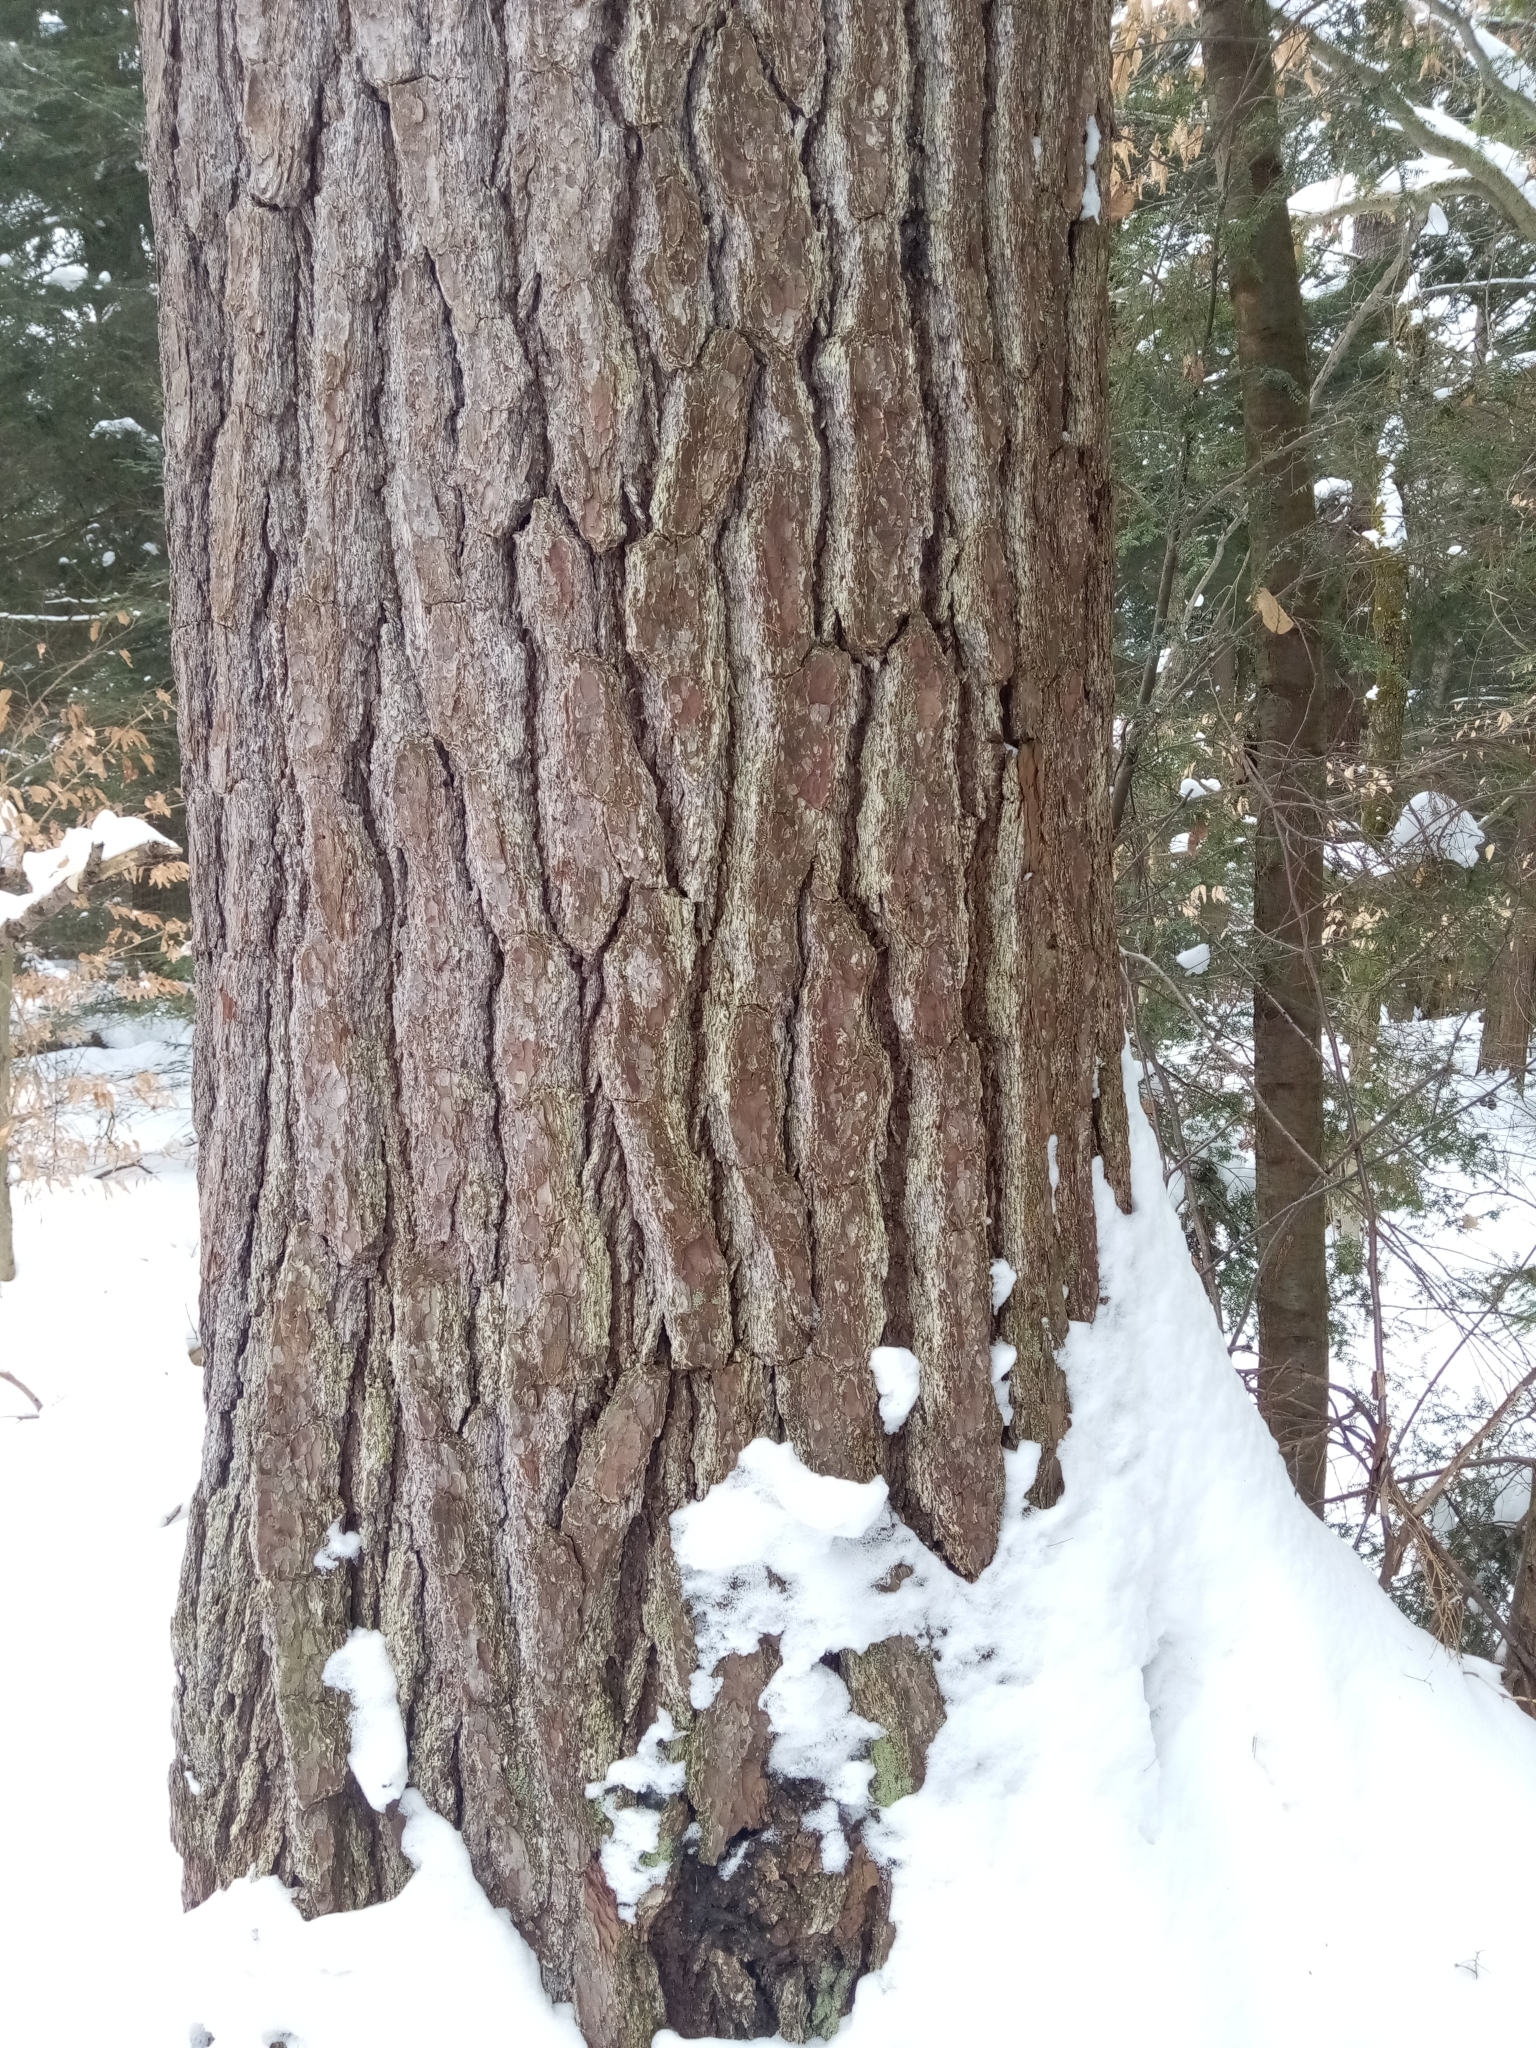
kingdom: Plantae
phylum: Tracheophyta
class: Pinopsida
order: Pinales
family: Pinaceae
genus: Pinus
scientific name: Pinus strobus
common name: Weymouth pine
